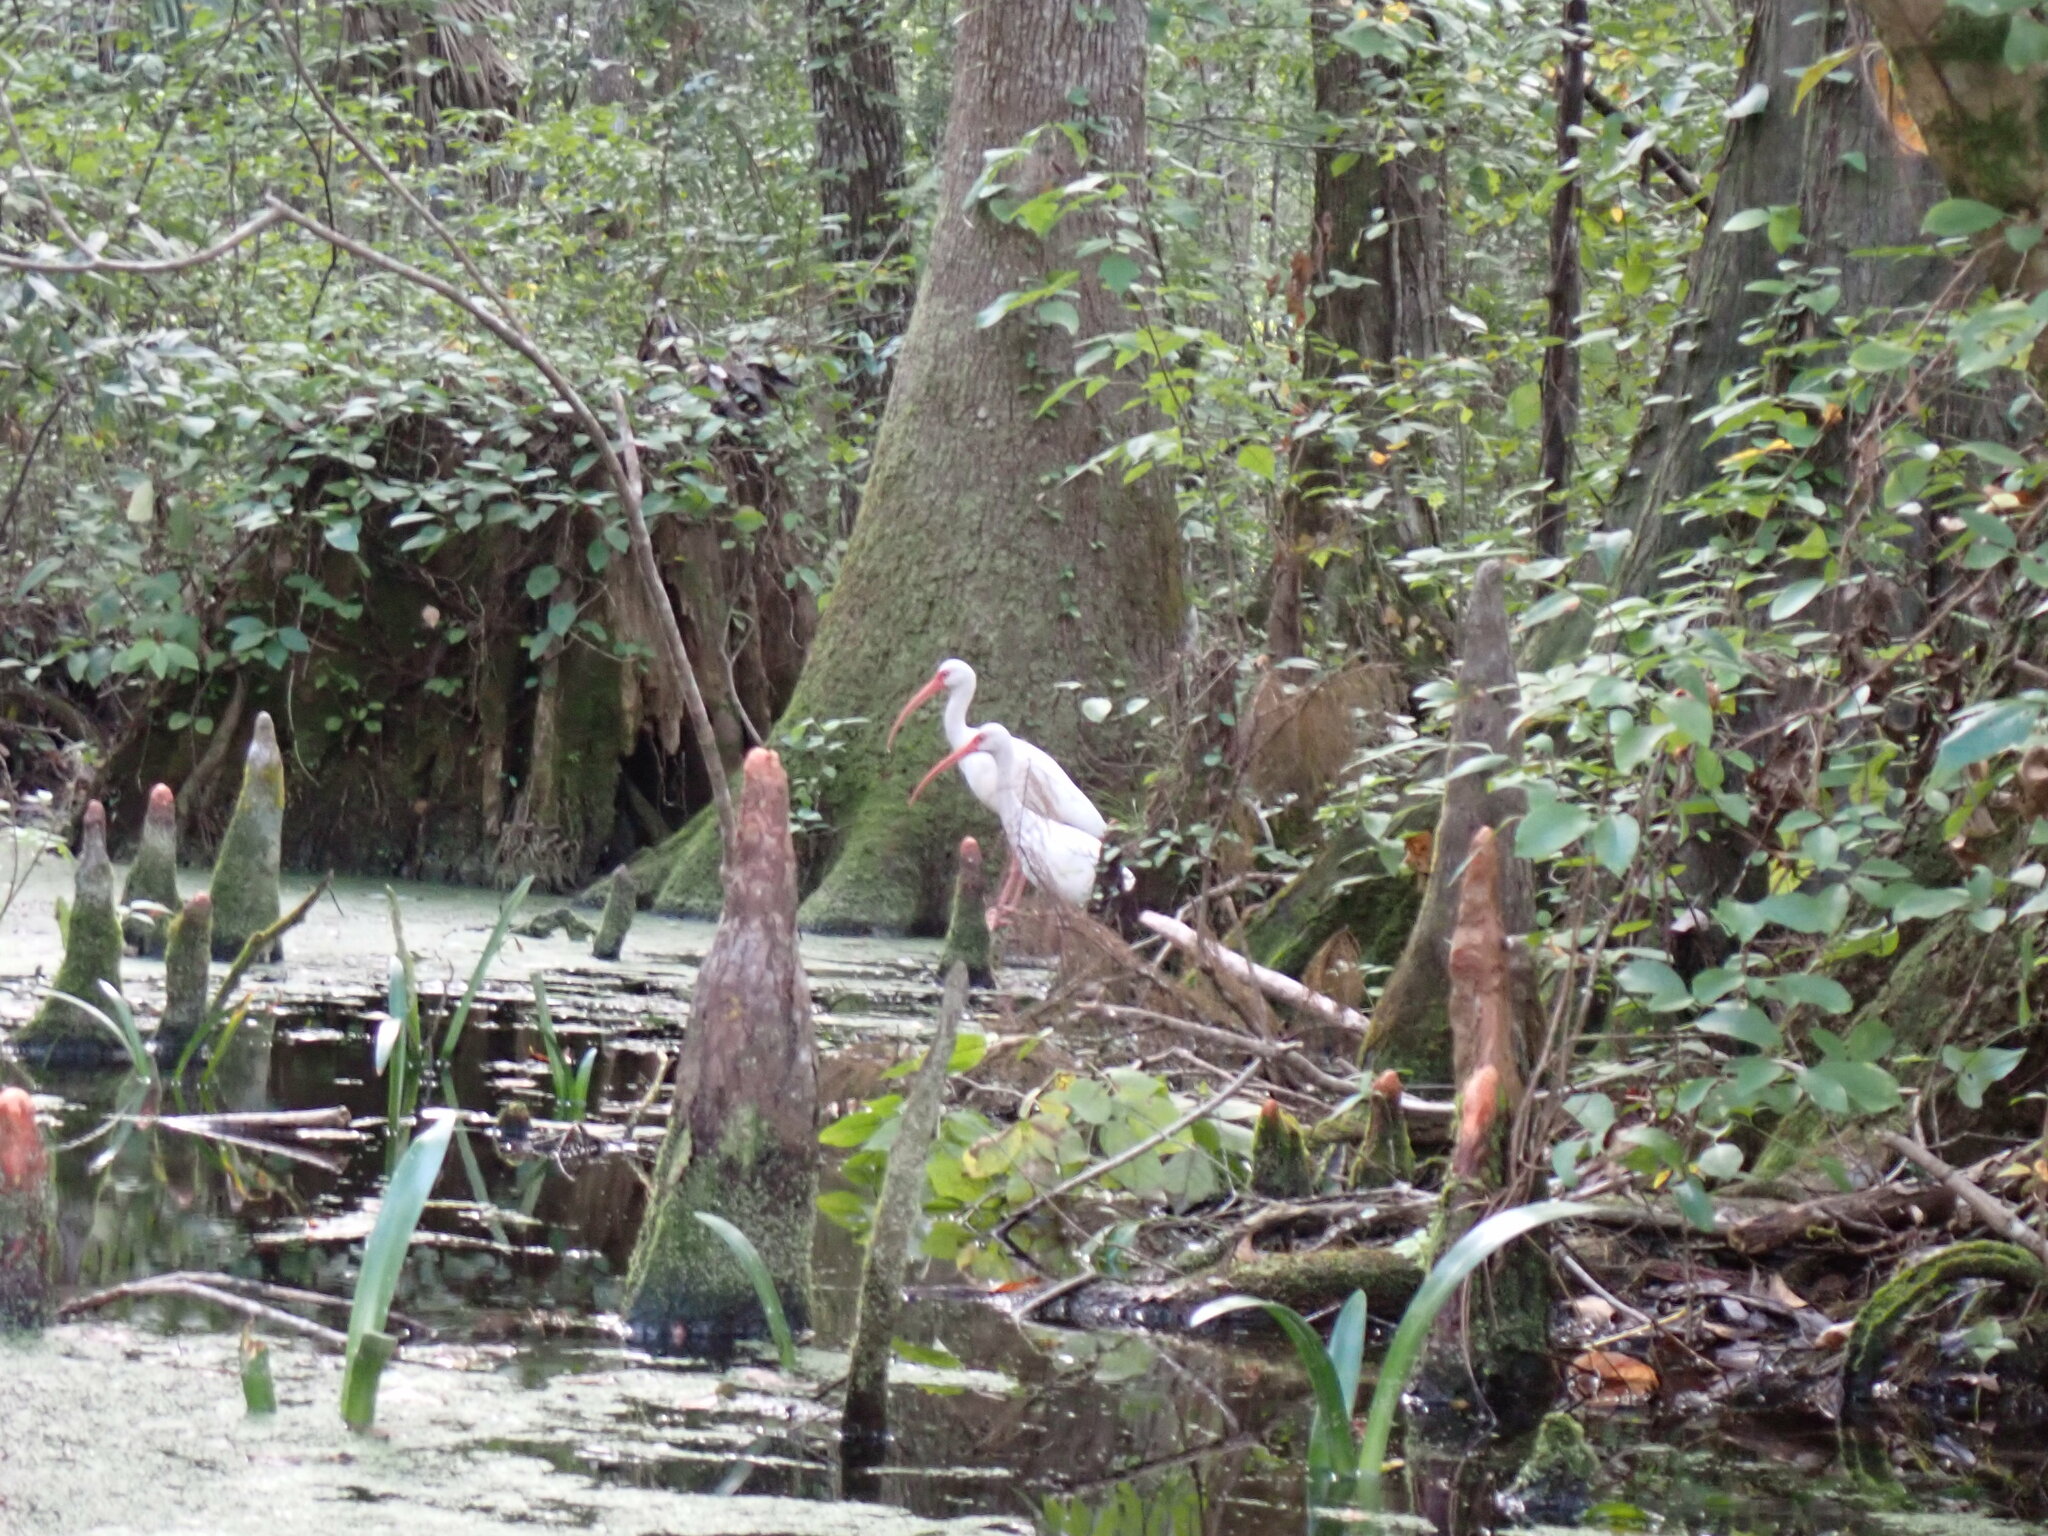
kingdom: Animalia
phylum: Chordata
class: Aves
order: Pelecaniformes
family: Threskiornithidae
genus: Eudocimus
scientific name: Eudocimus albus
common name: White ibis
